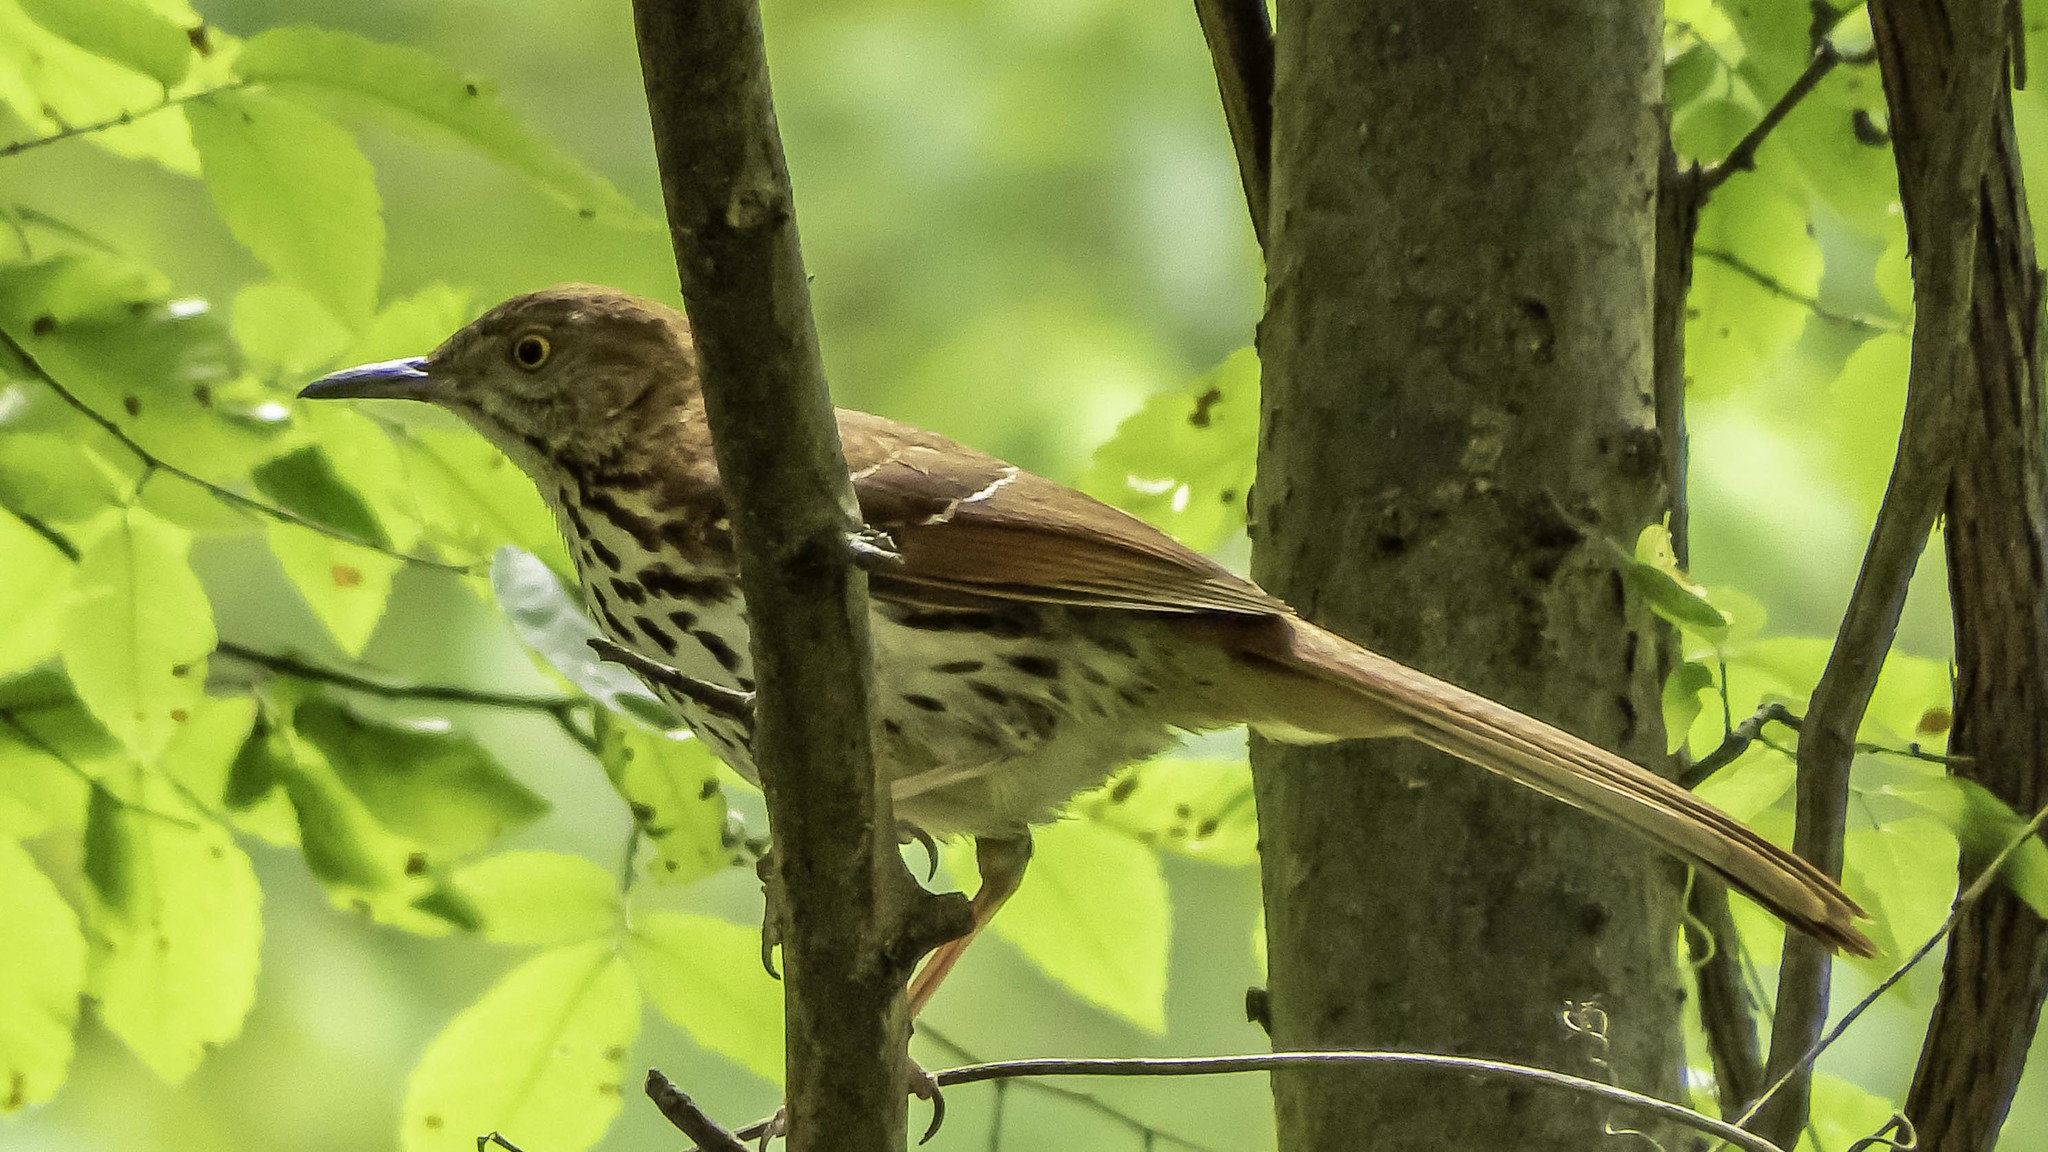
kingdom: Animalia
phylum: Chordata
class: Aves
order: Passeriformes
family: Mimidae
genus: Toxostoma
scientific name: Toxostoma rufum
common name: Brown thrasher
